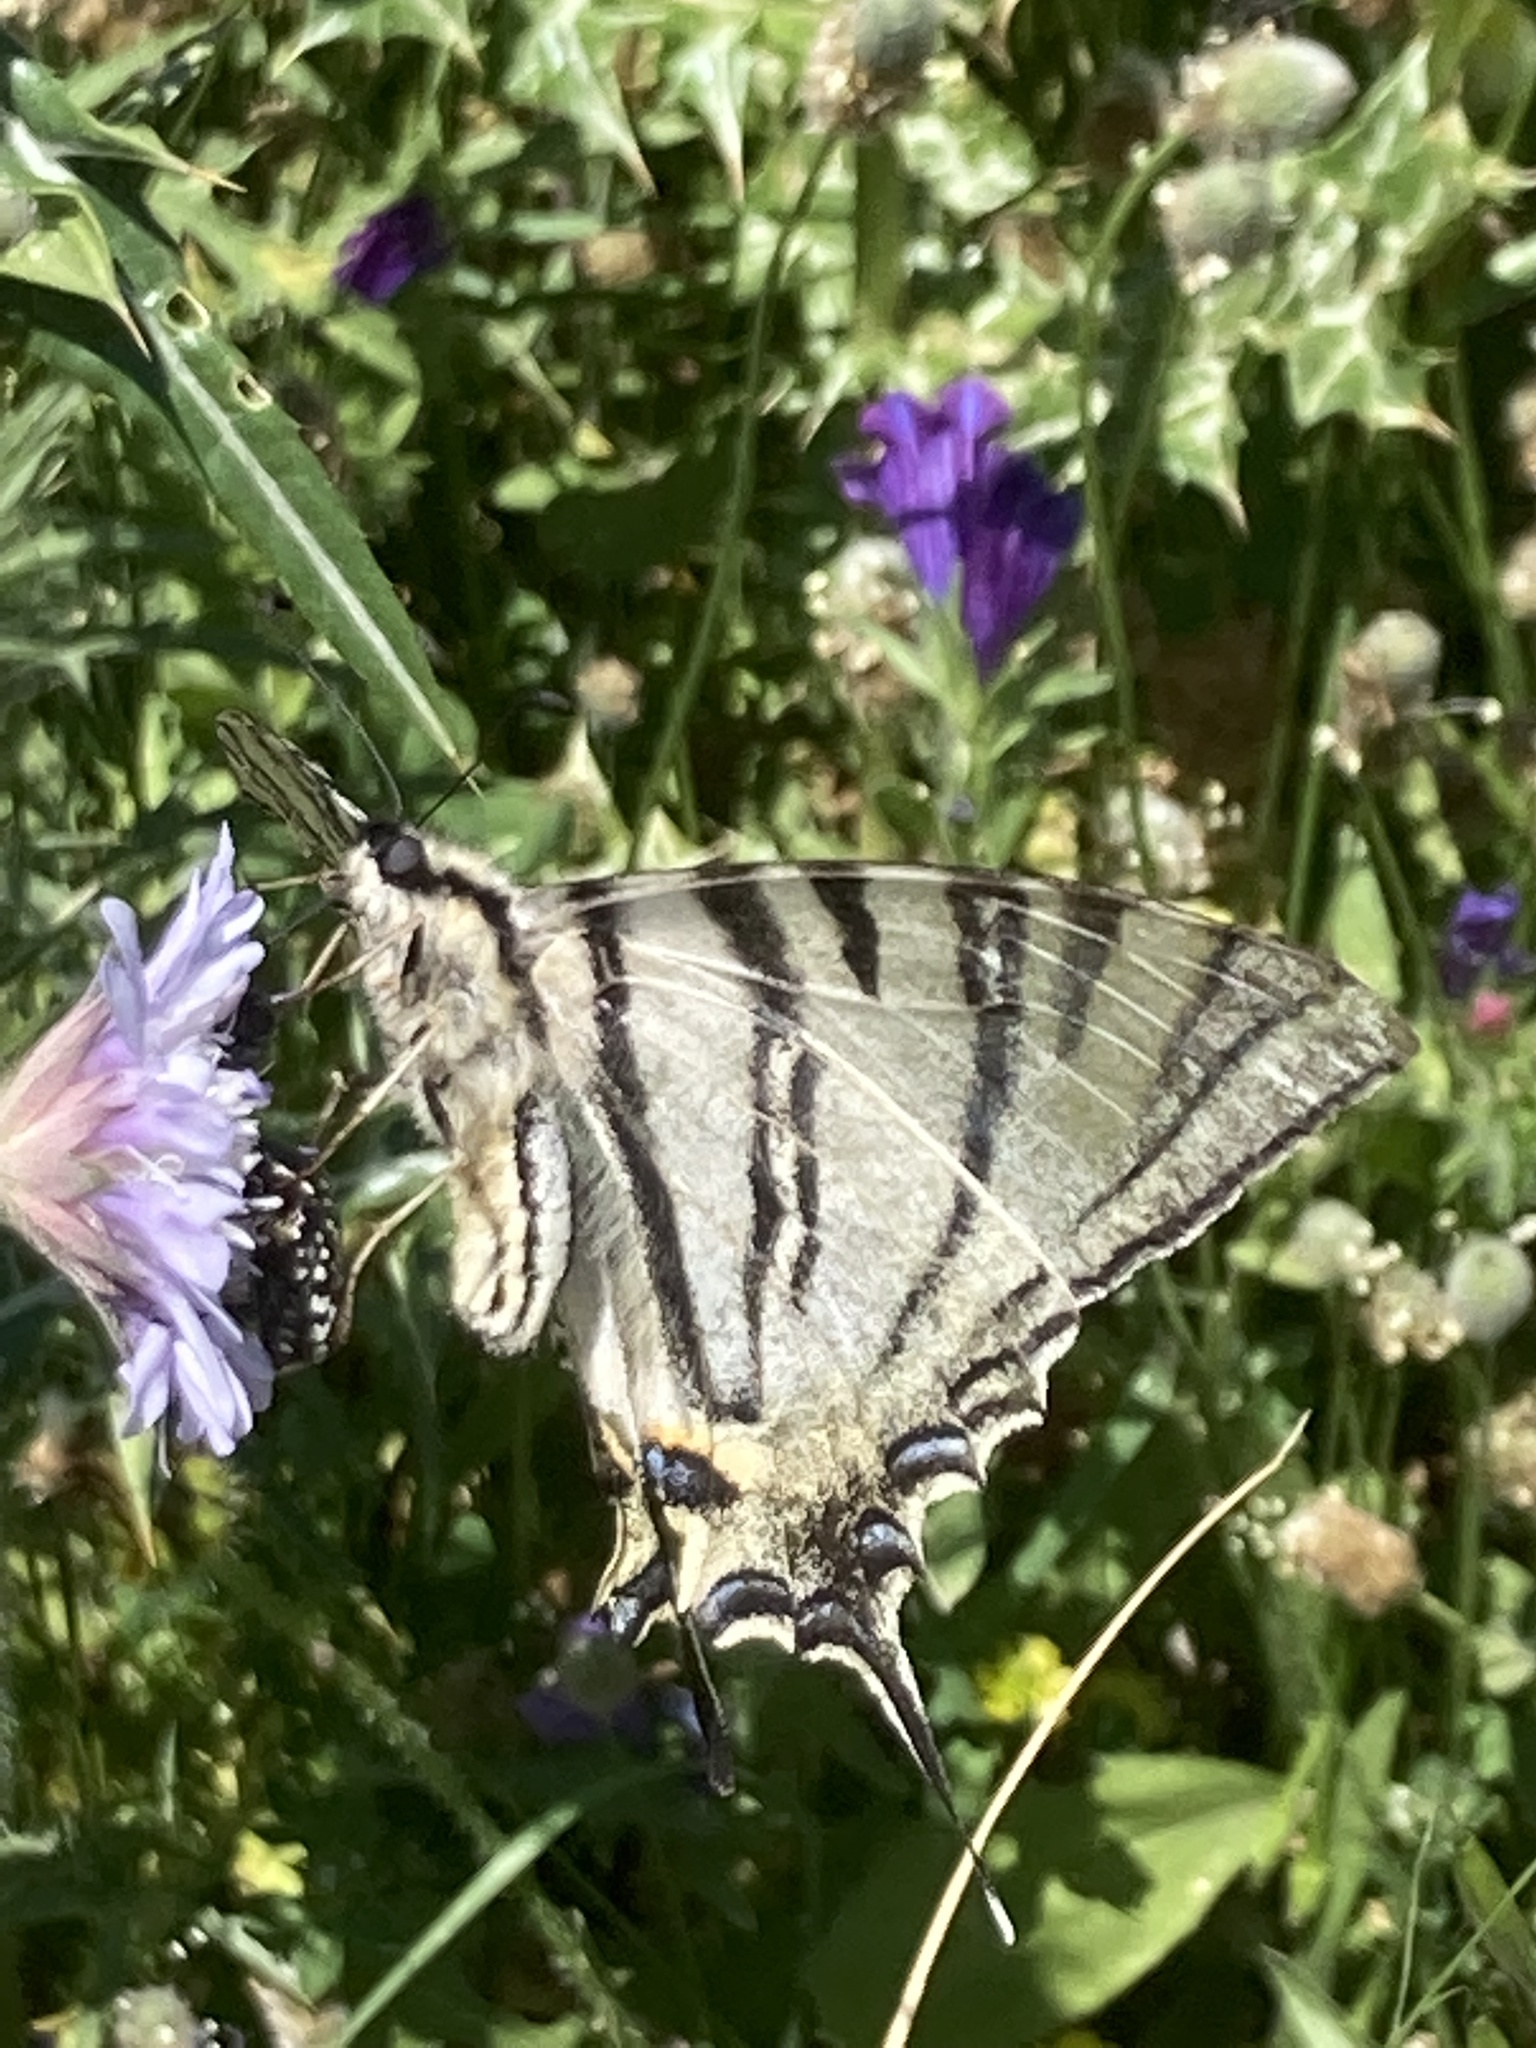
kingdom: Animalia
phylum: Arthropoda
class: Insecta
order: Lepidoptera
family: Papilionidae
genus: Iphiclides
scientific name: Iphiclides podalirius
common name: Scarce swallowtail
